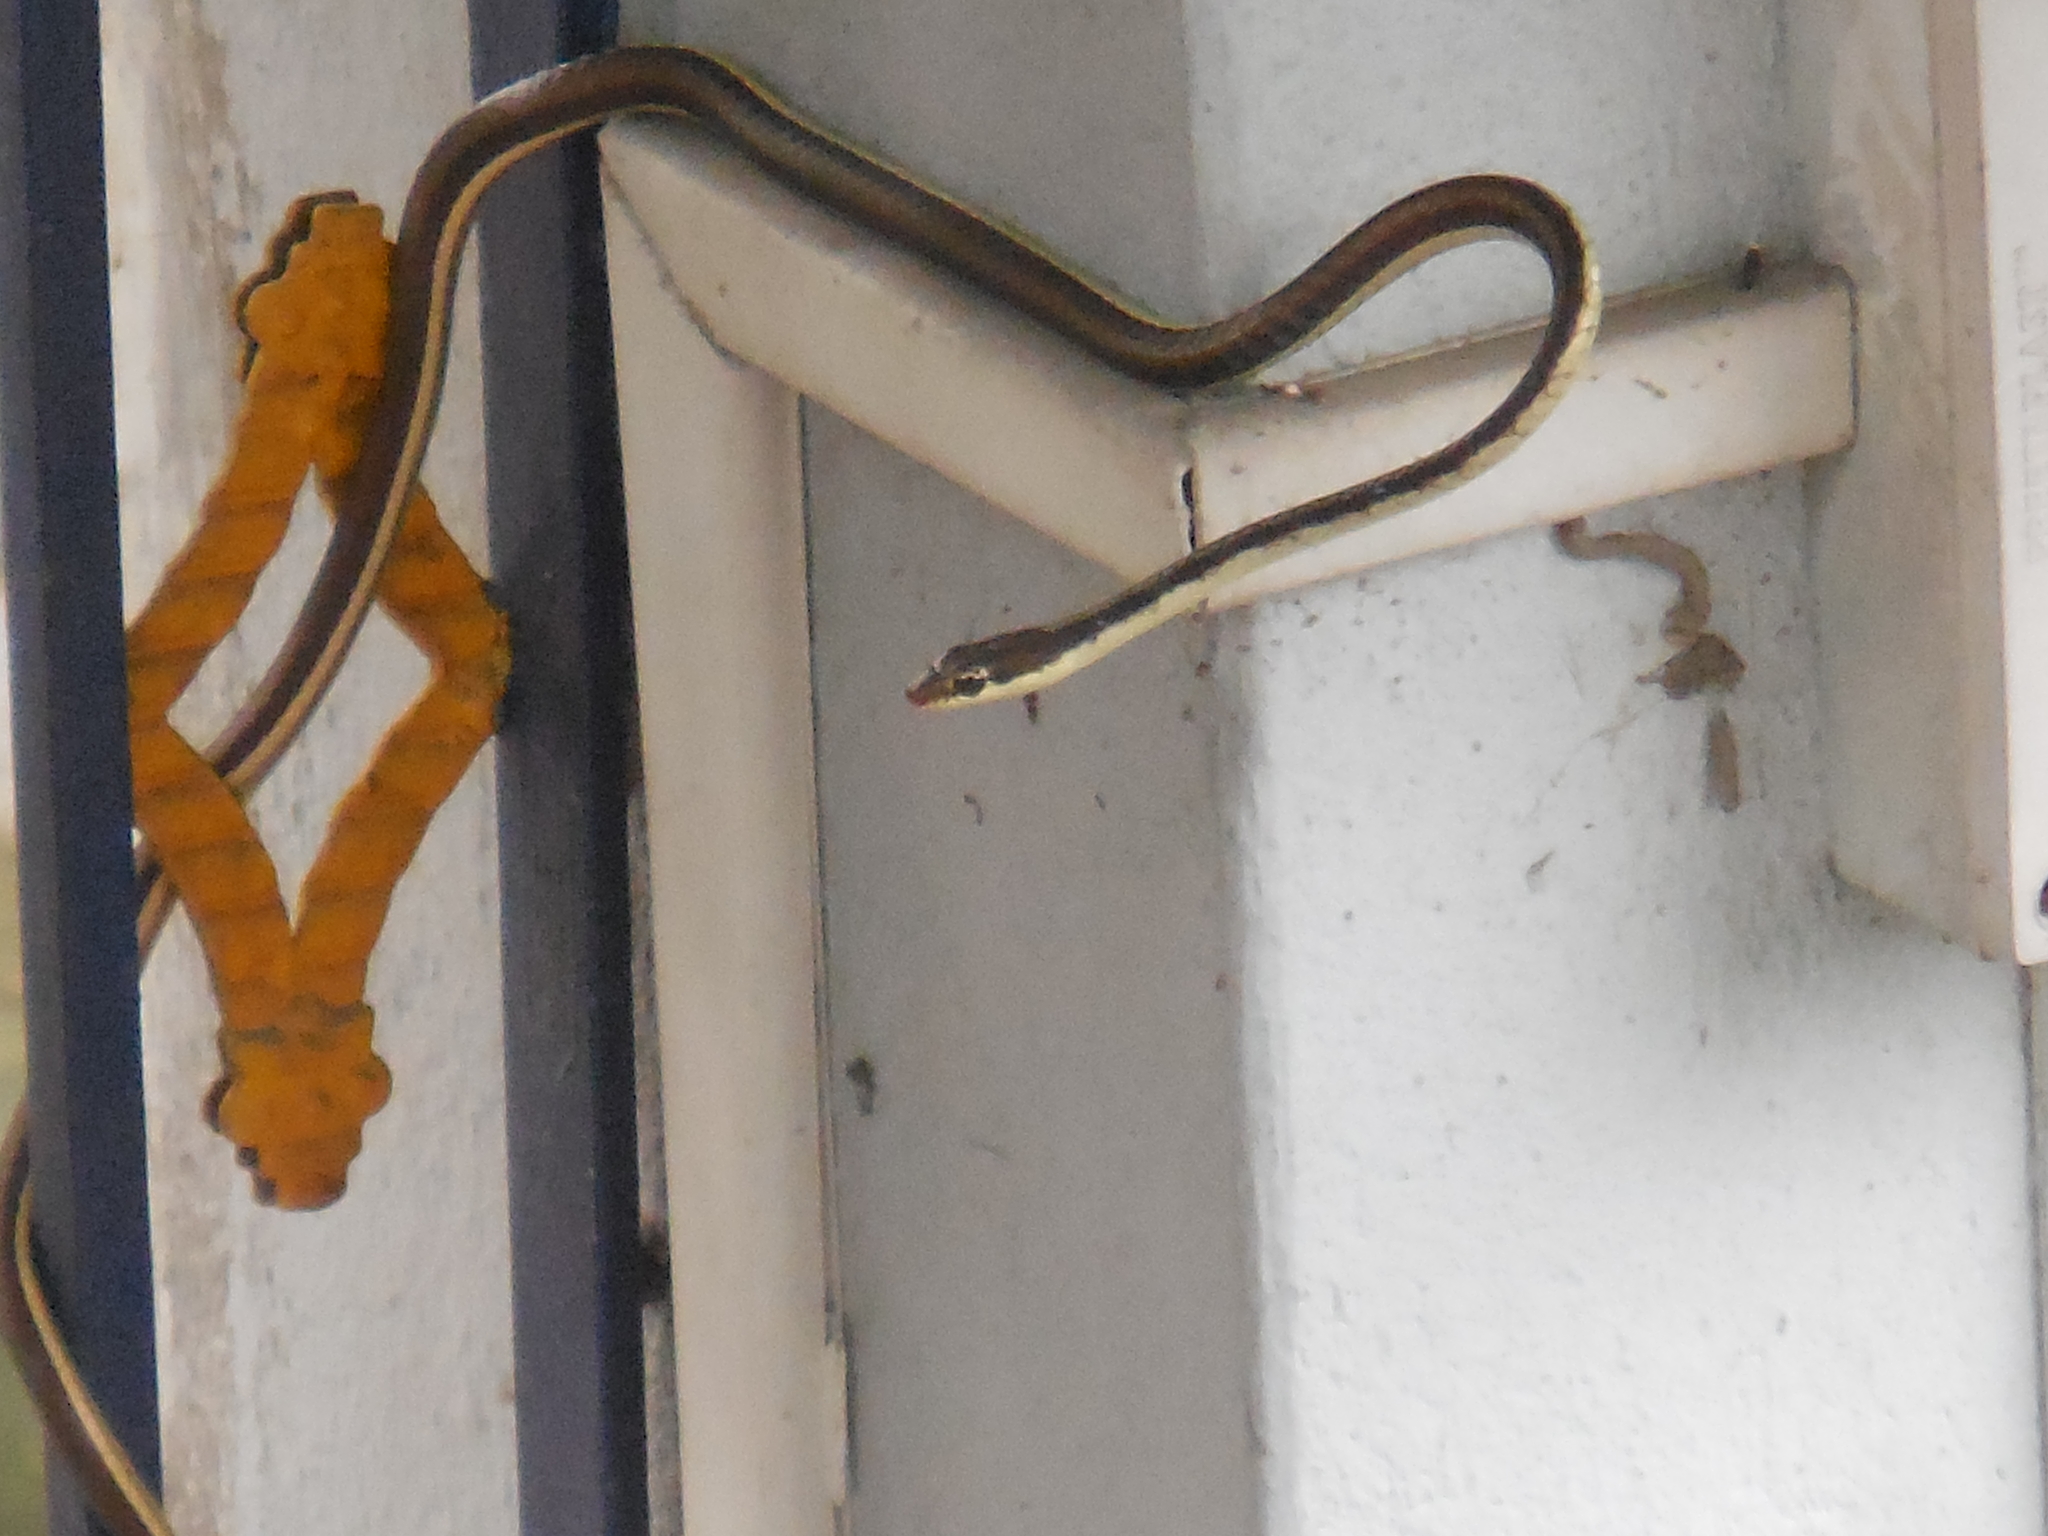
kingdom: Animalia
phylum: Chordata
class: Squamata
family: Colubridae
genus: Dendrelaphis
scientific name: Dendrelaphis tristis
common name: Daudin's bronzeback
